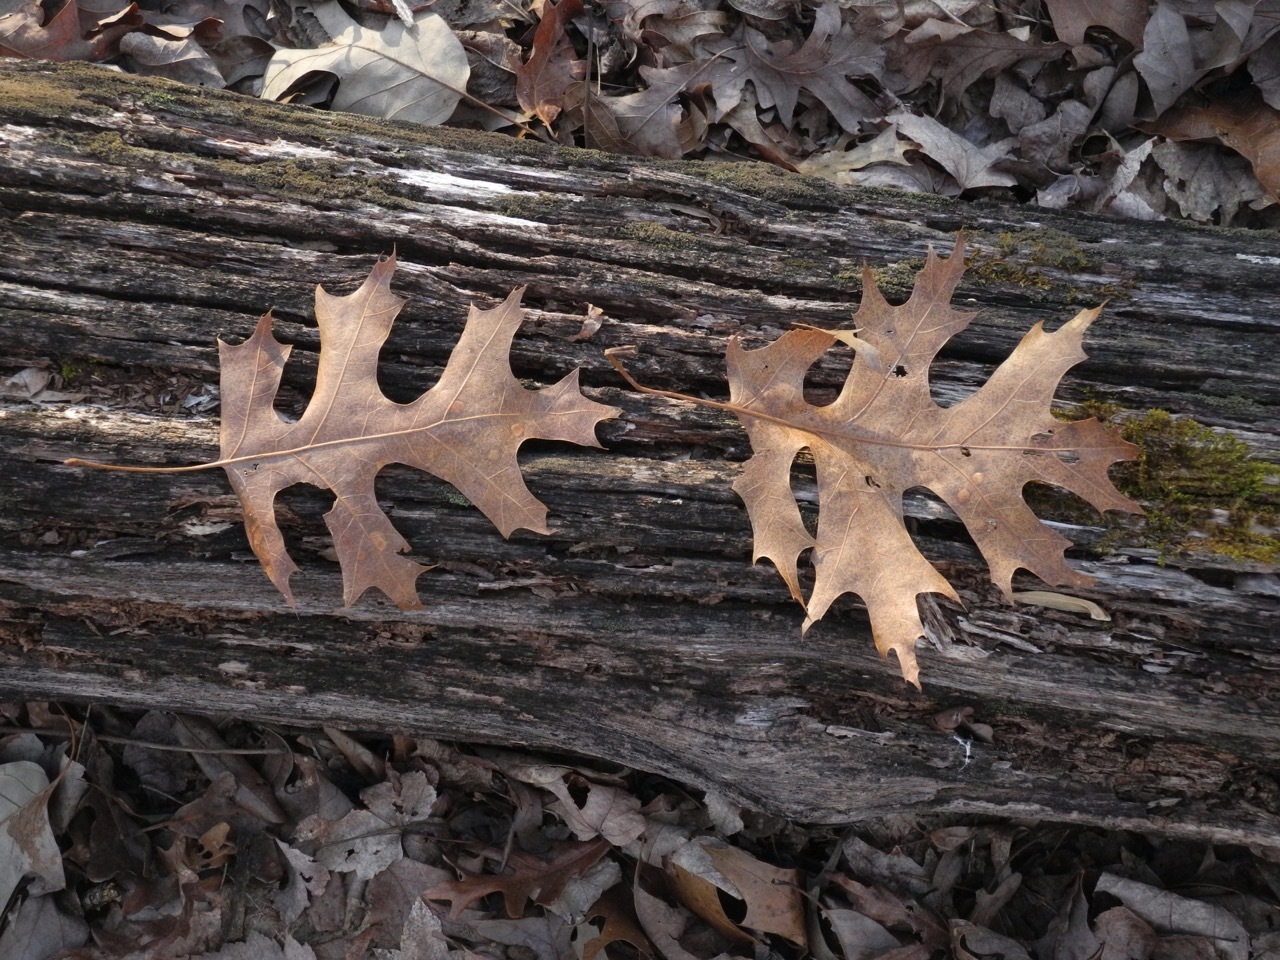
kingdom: Plantae
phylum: Tracheophyta
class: Magnoliopsida
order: Fagales
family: Fagaceae
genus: Quercus
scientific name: Quercus coccinea
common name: Scarlet oak
